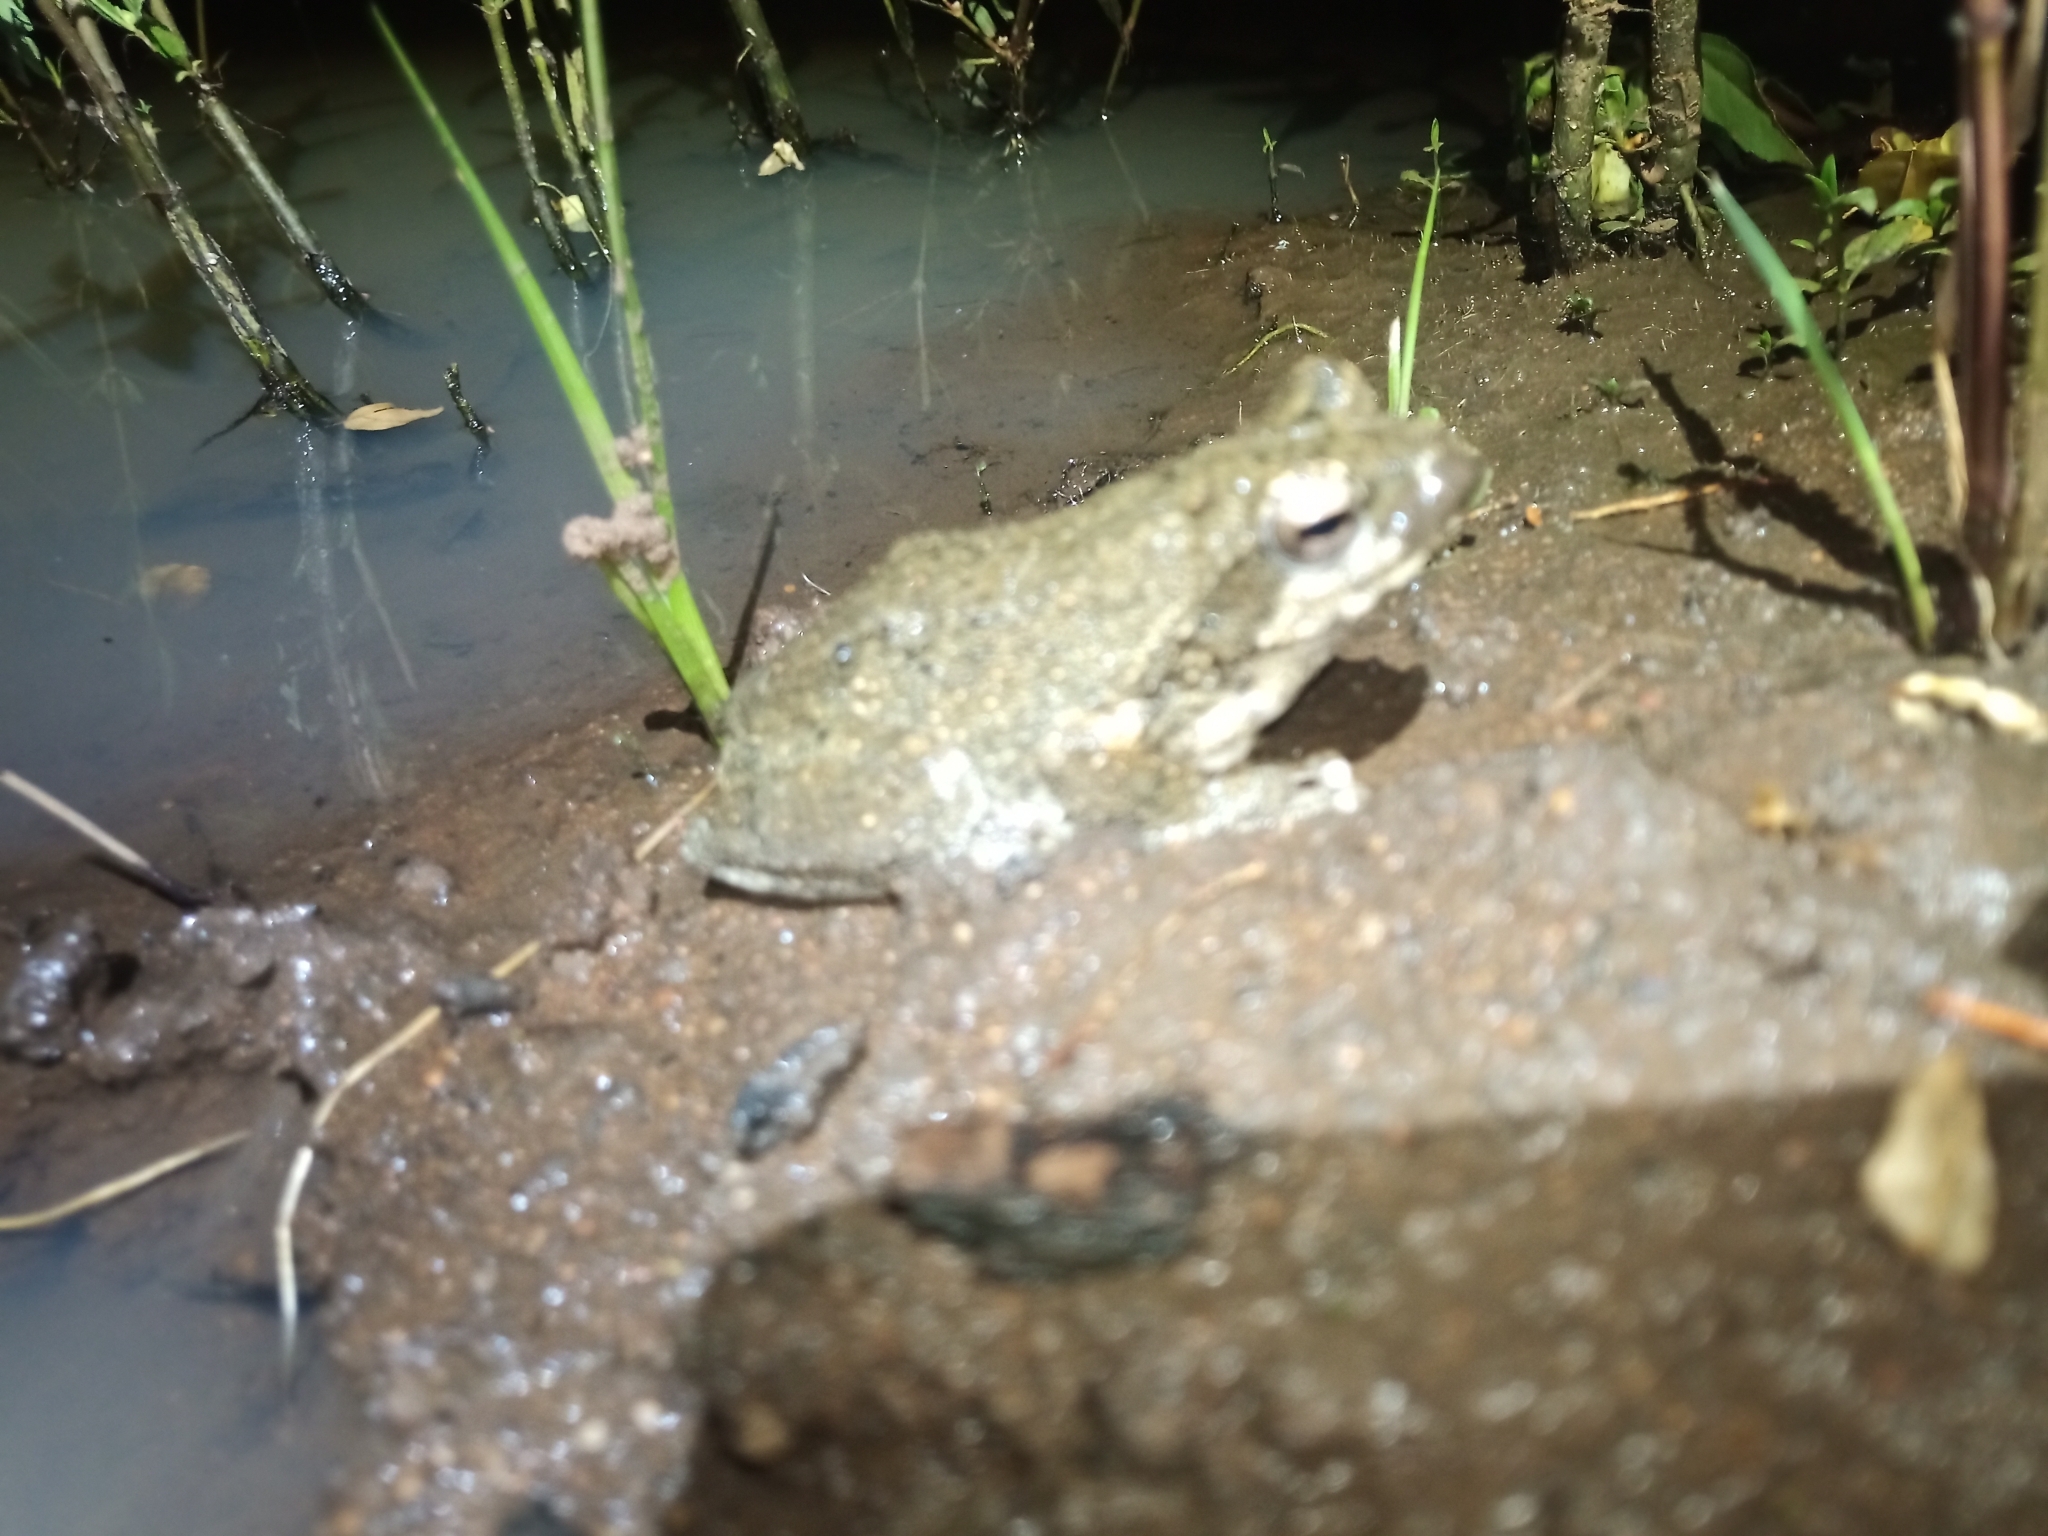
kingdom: Animalia
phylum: Chordata
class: Amphibia
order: Anura
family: Rhacophoridae
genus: Chiromantis
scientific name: Chiromantis xerampelina
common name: African gray treefrog
